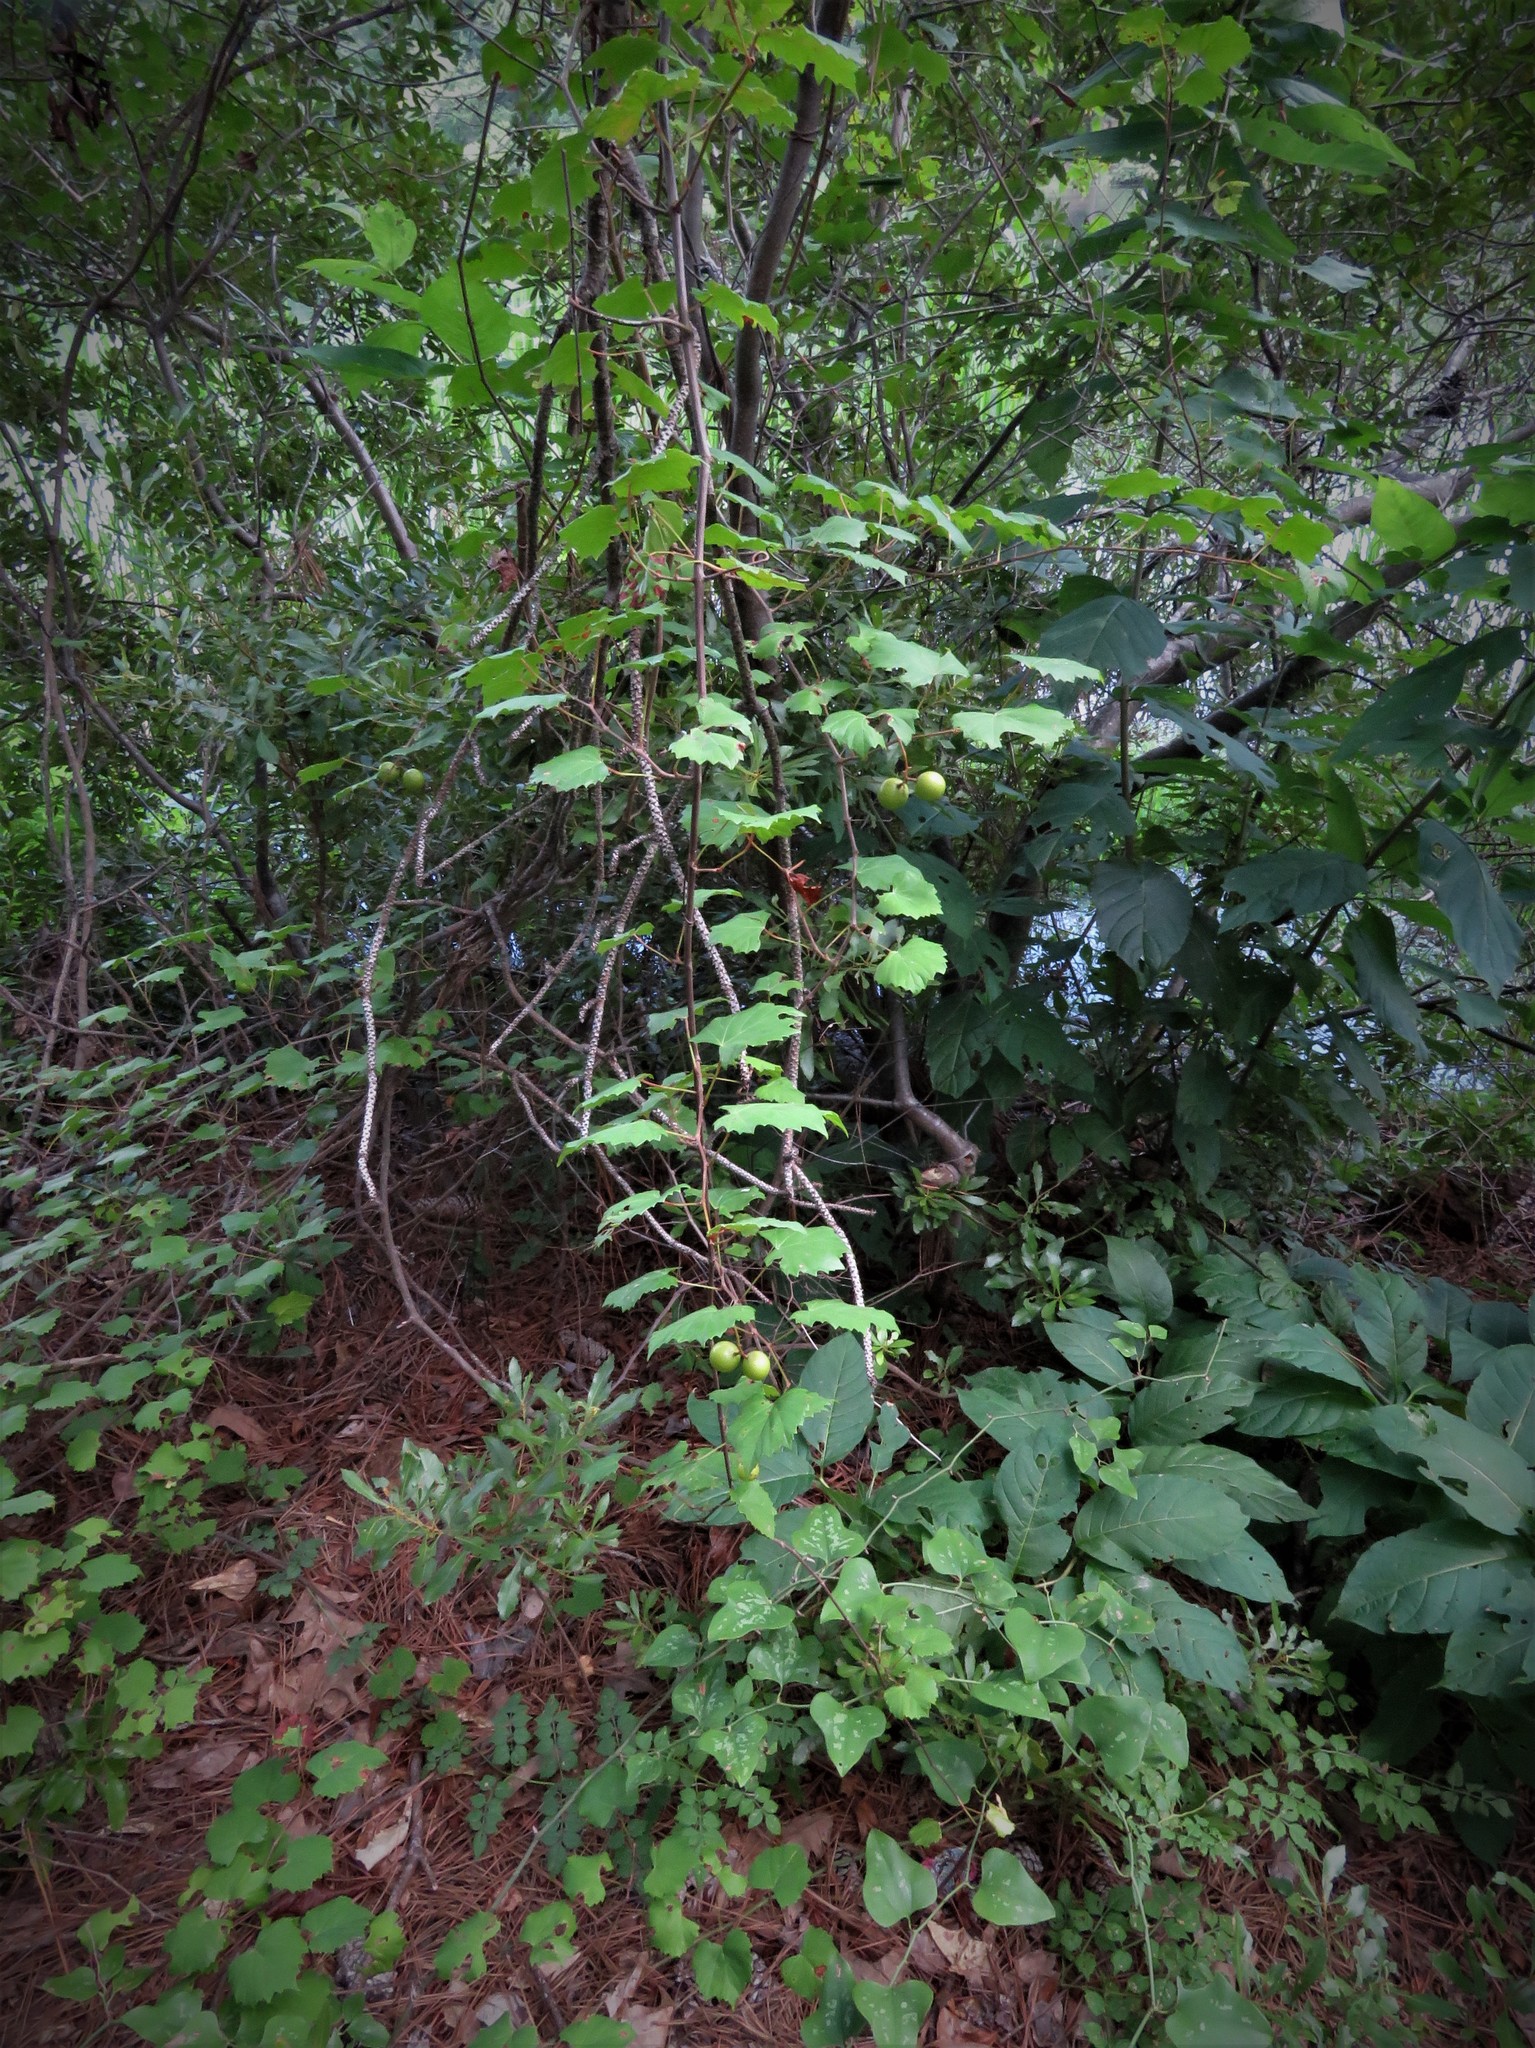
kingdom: Plantae
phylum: Tracheophyta
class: Magnoliopsida
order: Vitales
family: Vitaceae
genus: Vitis
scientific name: Vitis rotundifolia
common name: Muscadine grape
